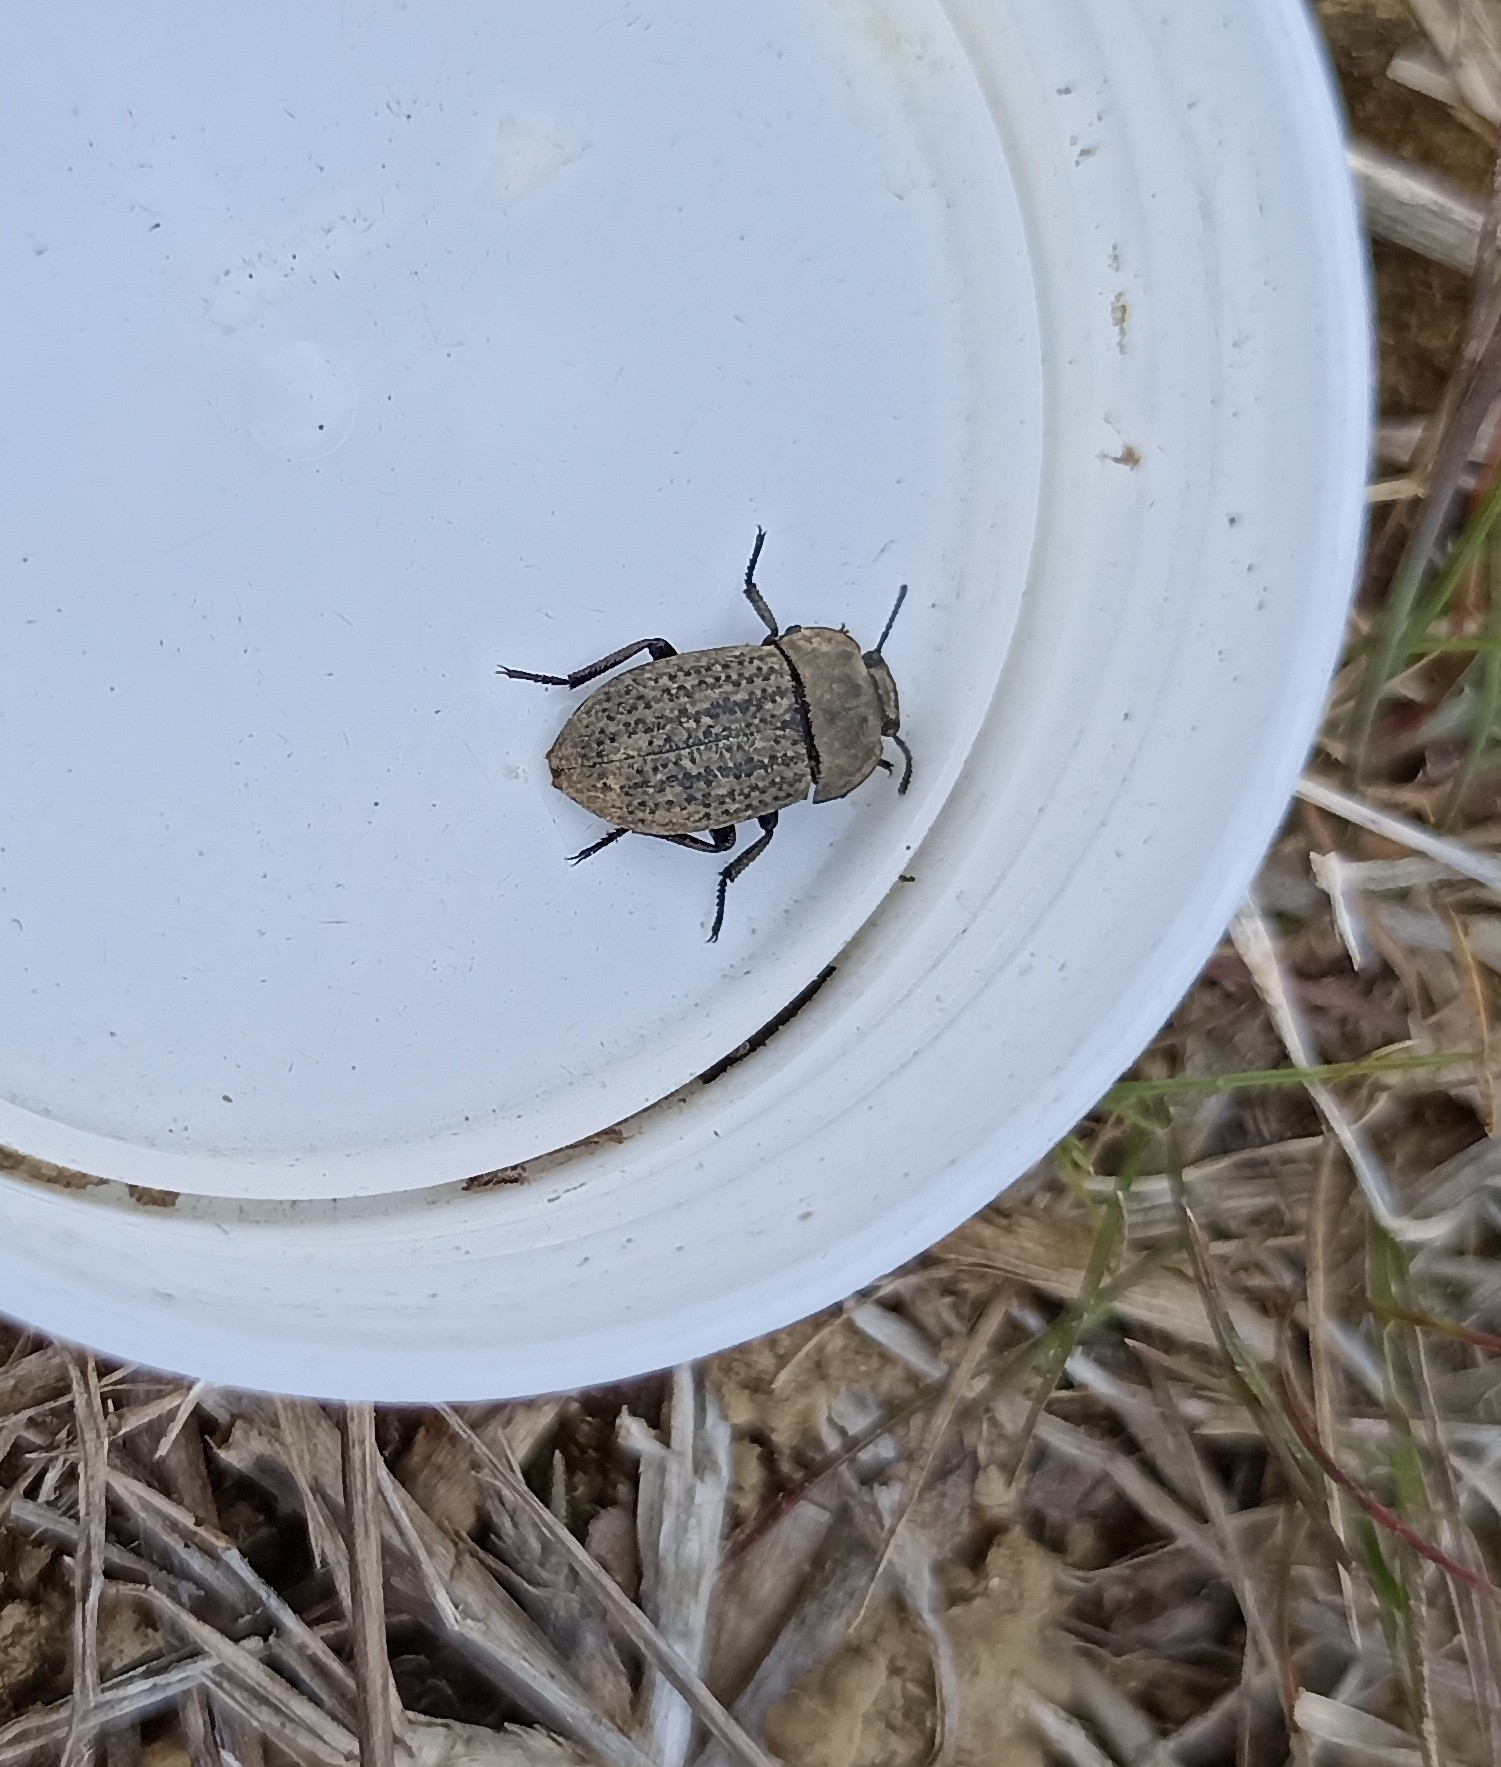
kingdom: Animalia
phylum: Arthropoda
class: Insecta
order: Coleoptera
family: Tenebrionidae
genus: Opatrum
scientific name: Opatrum sabulosum
